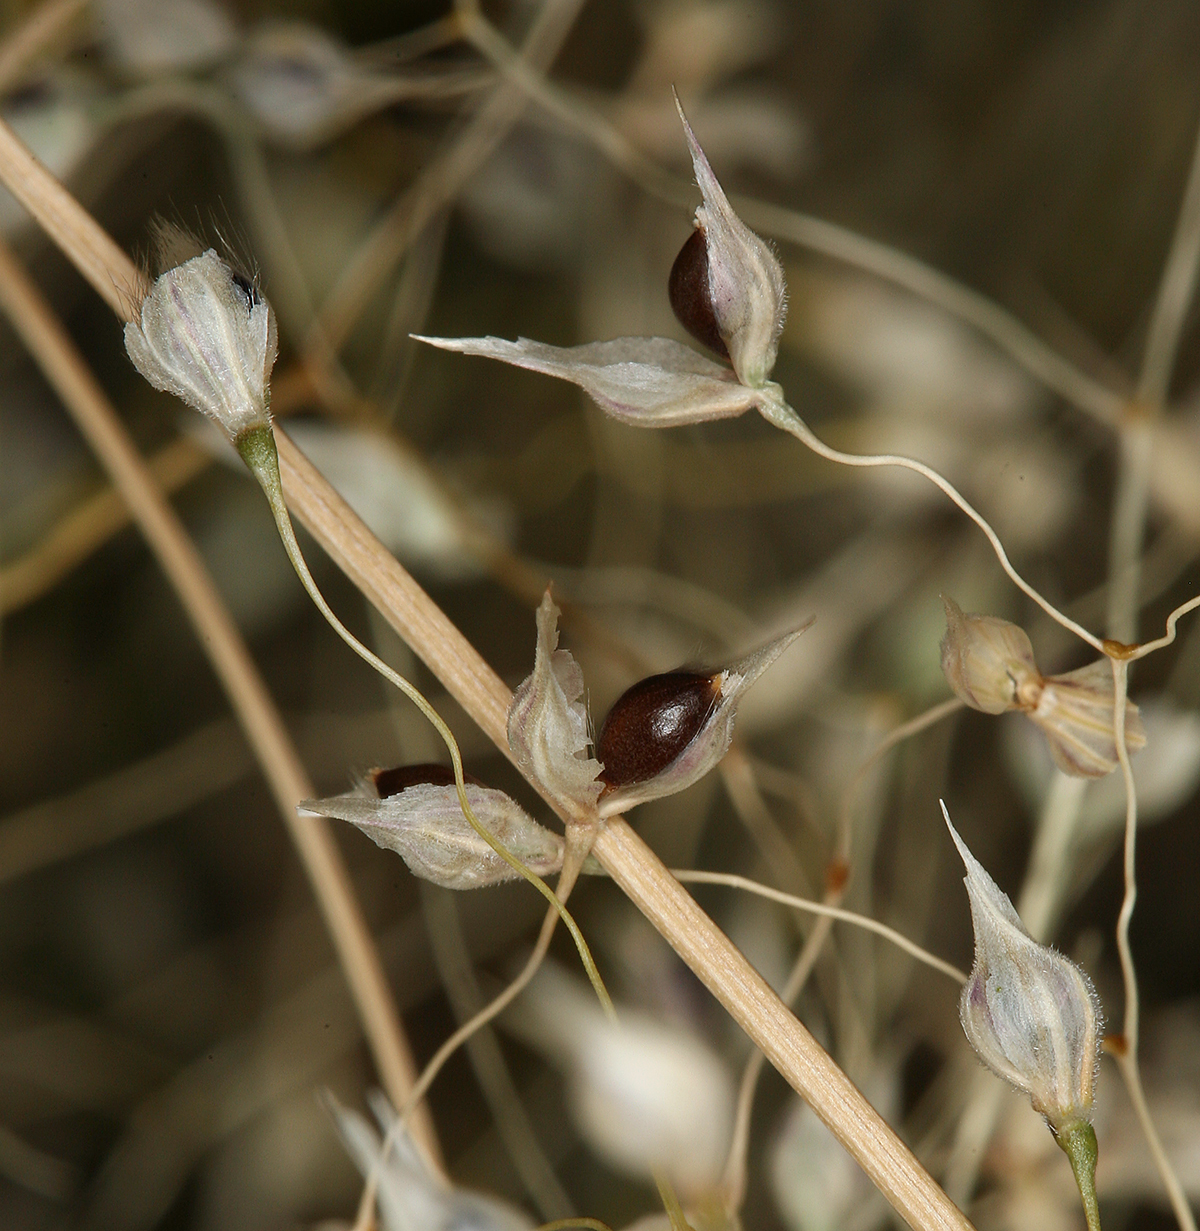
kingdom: Plantae
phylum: Tracheophyta
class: Liliopsida
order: Poales
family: Poaceae
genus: Eriocoma
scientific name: Eriocoma hymenoides
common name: Indian mountain ricegrass
